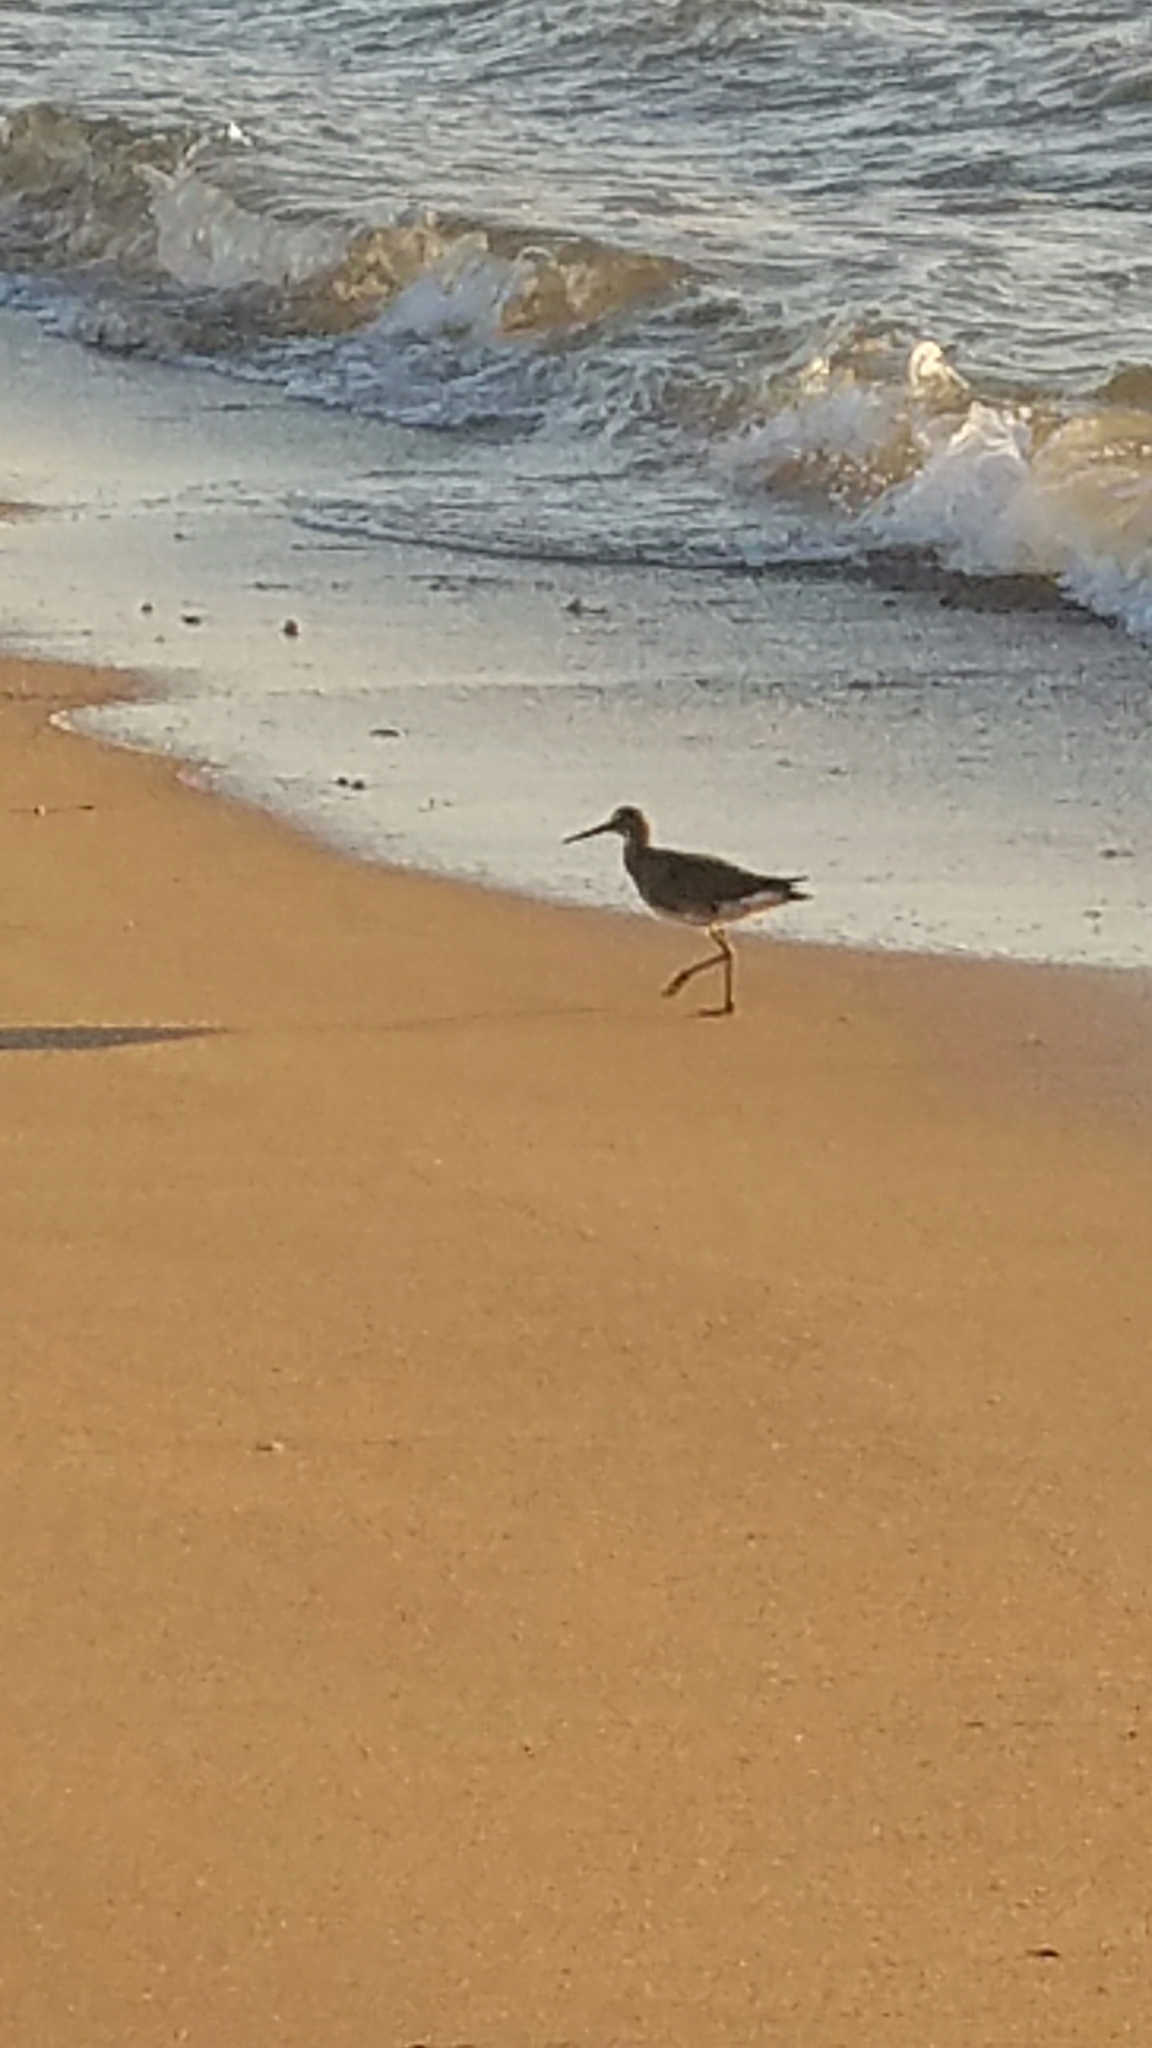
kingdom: Animalia
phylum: Chordata
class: Aves
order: Charadriiformes
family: Scolopacidae
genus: Tringa
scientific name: Tringa semipalmata
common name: Willet
